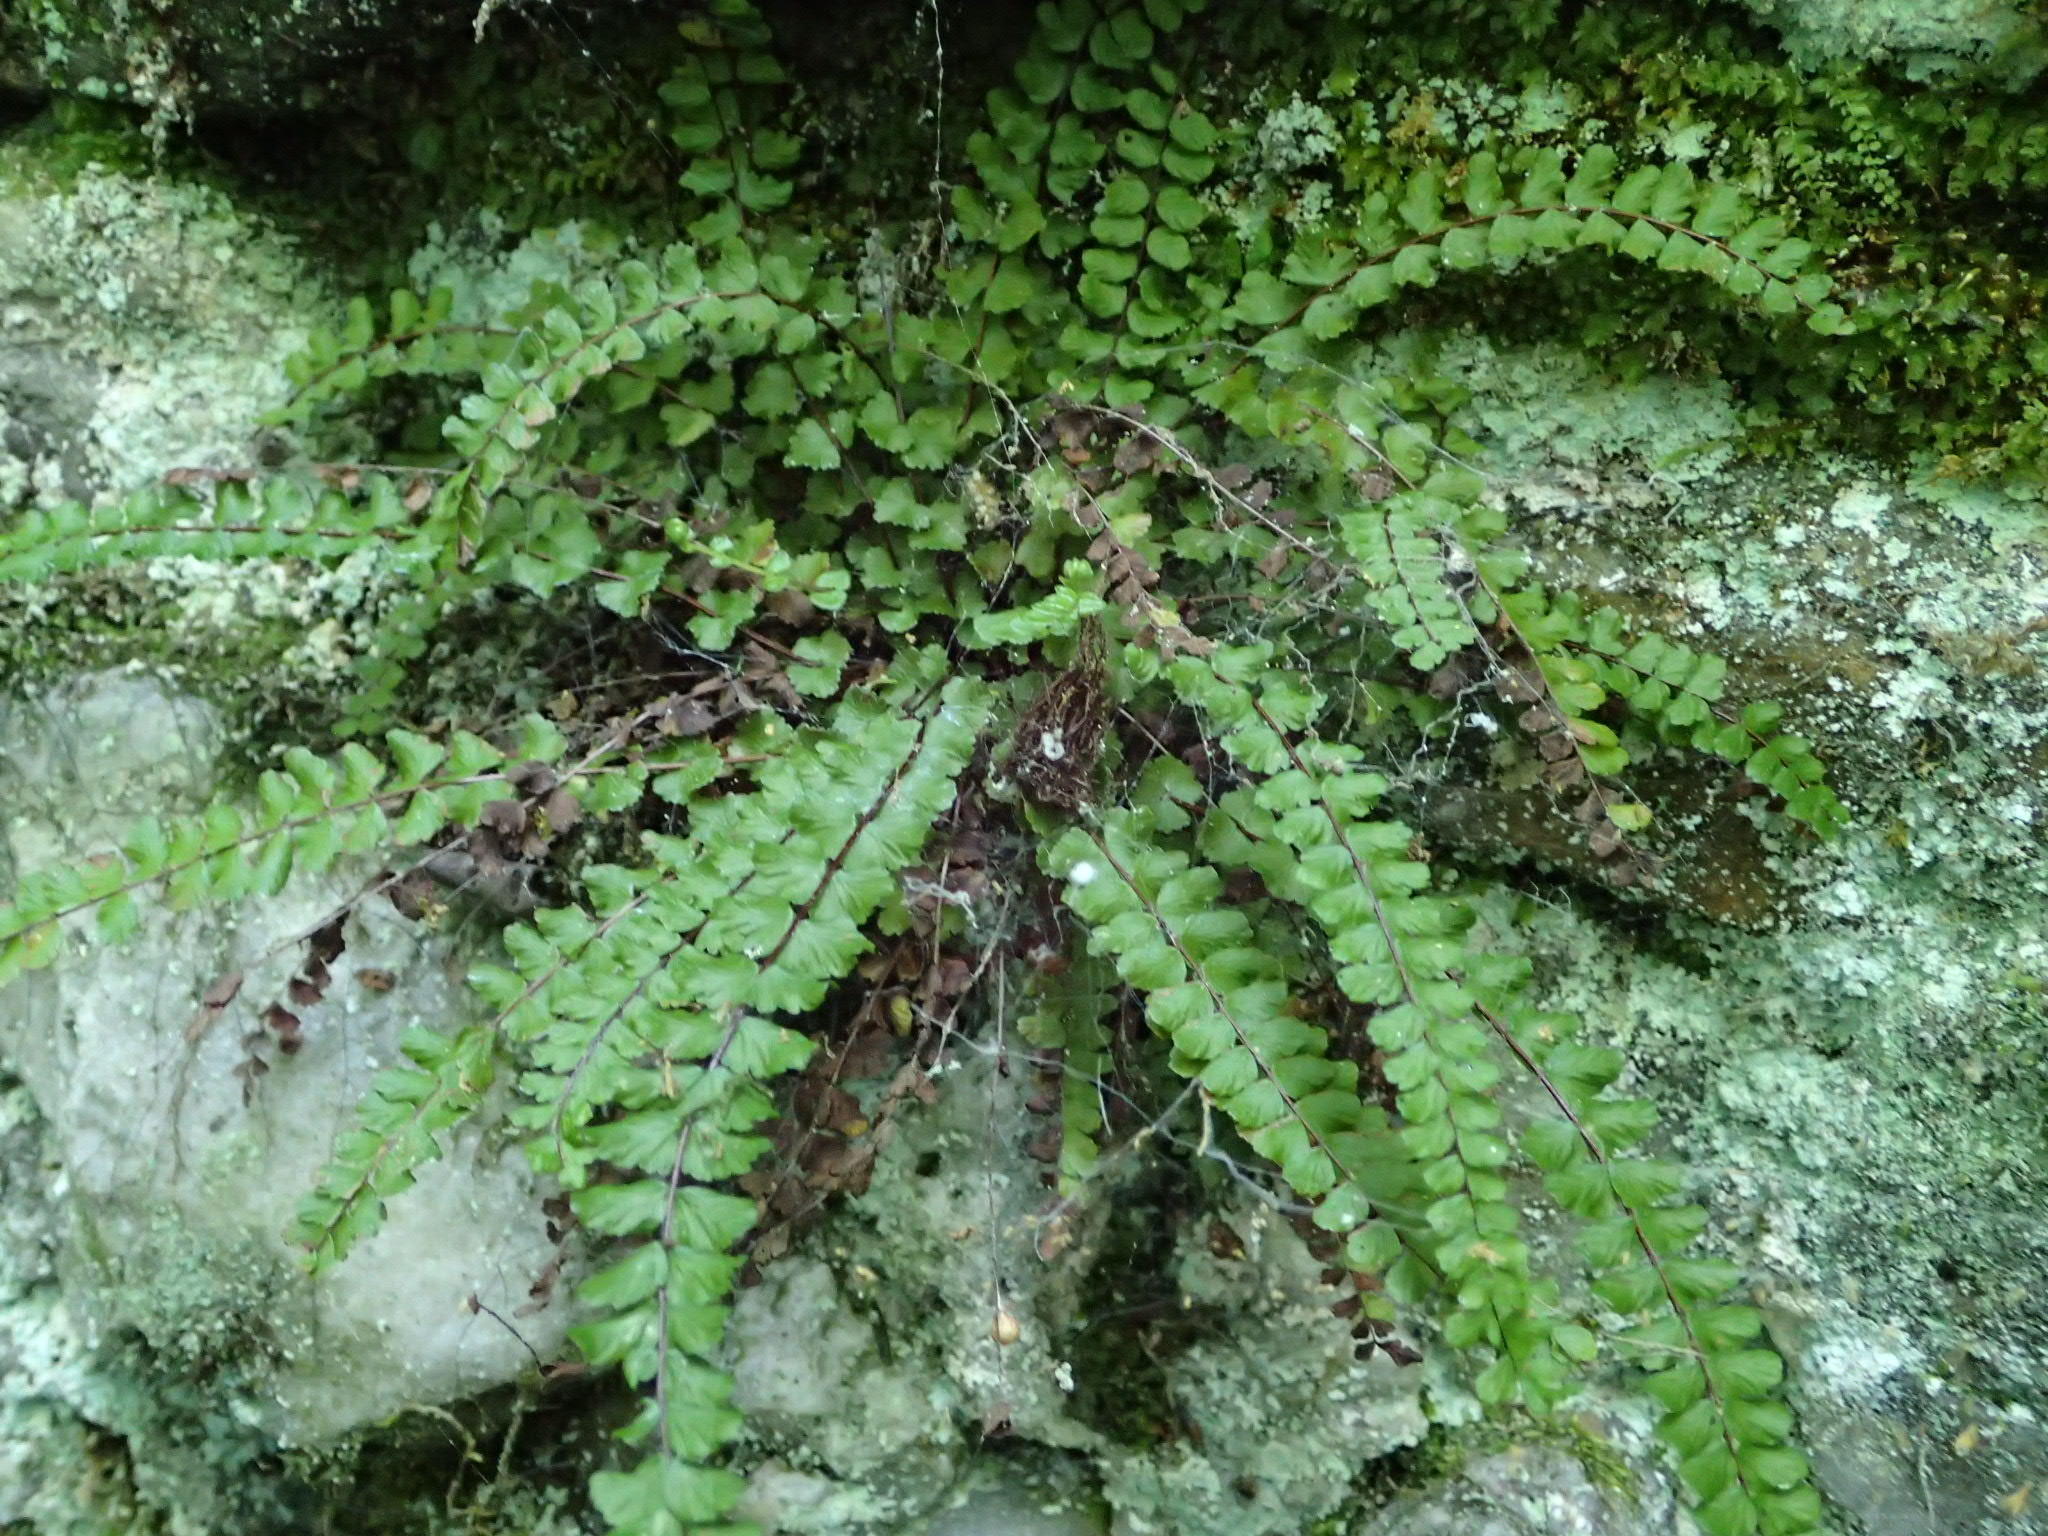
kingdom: Plantae
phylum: Tracheophyta
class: Polypodiopsida
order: Polypodiales
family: Aspleniaceae
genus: Asplenium
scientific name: Asplenium trichomanes
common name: Maidenhair spleenwort
